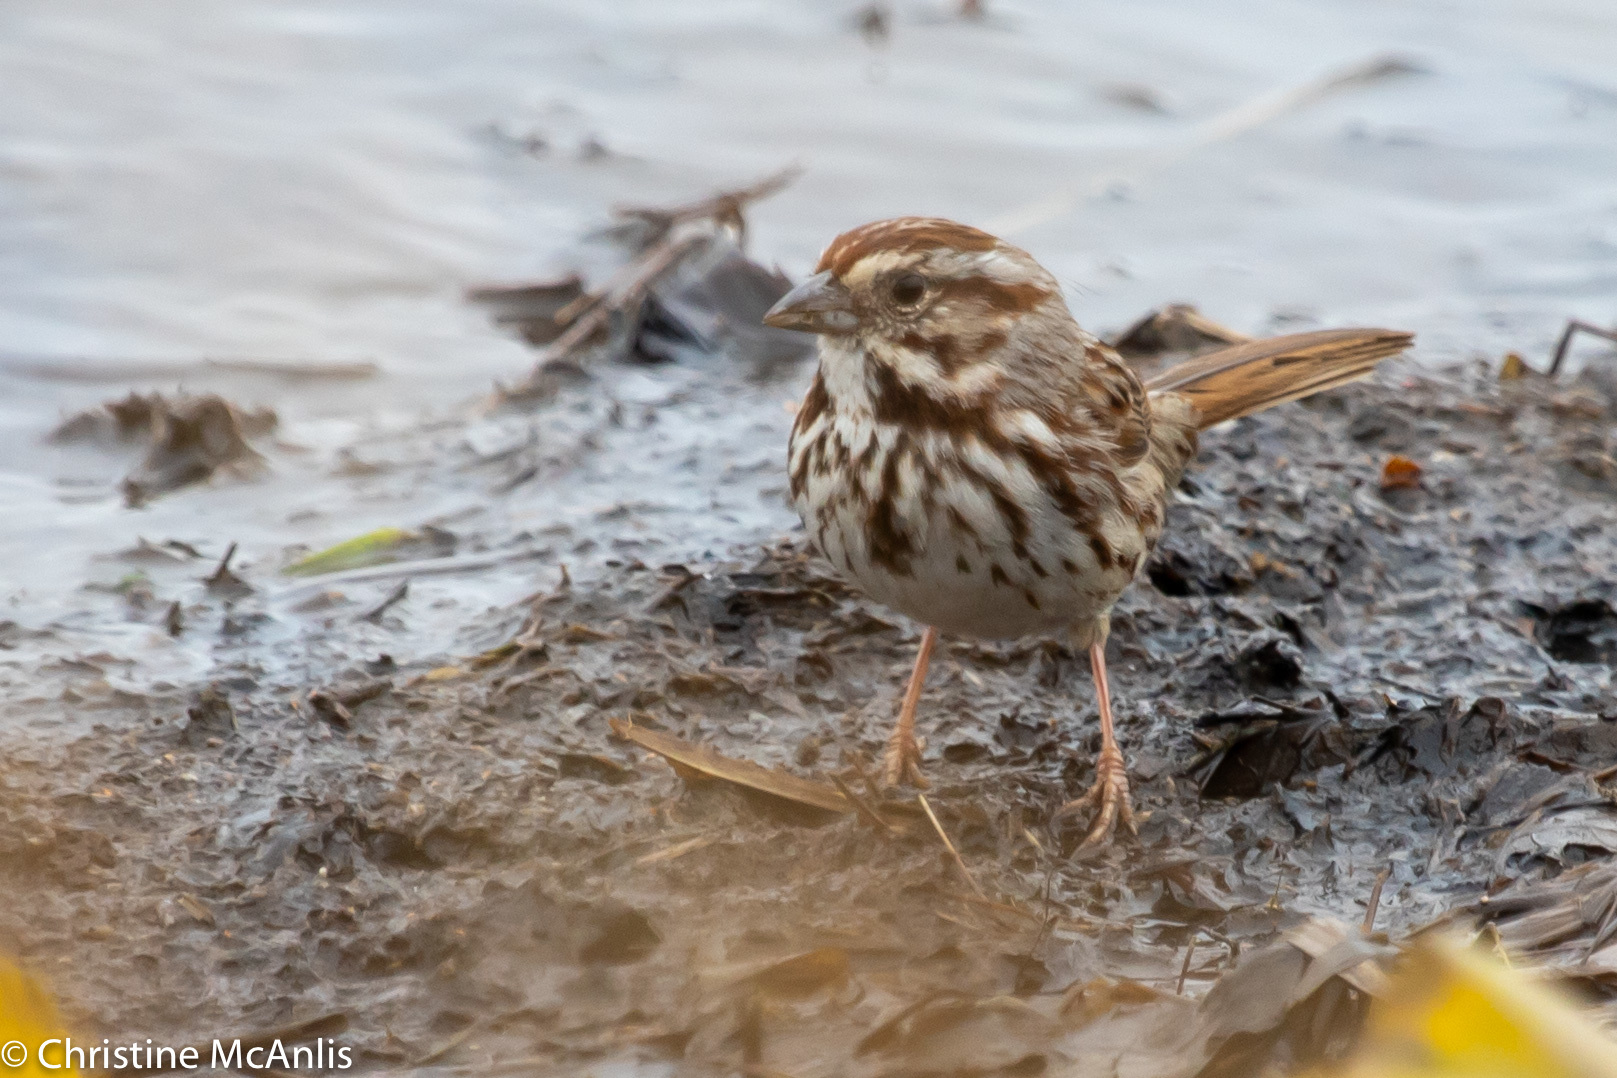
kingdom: Animalia
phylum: Chordata
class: Aves
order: Passeriformes
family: Passerellidae
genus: Melospiza
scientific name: Melospiza melodia
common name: Song sparrow
